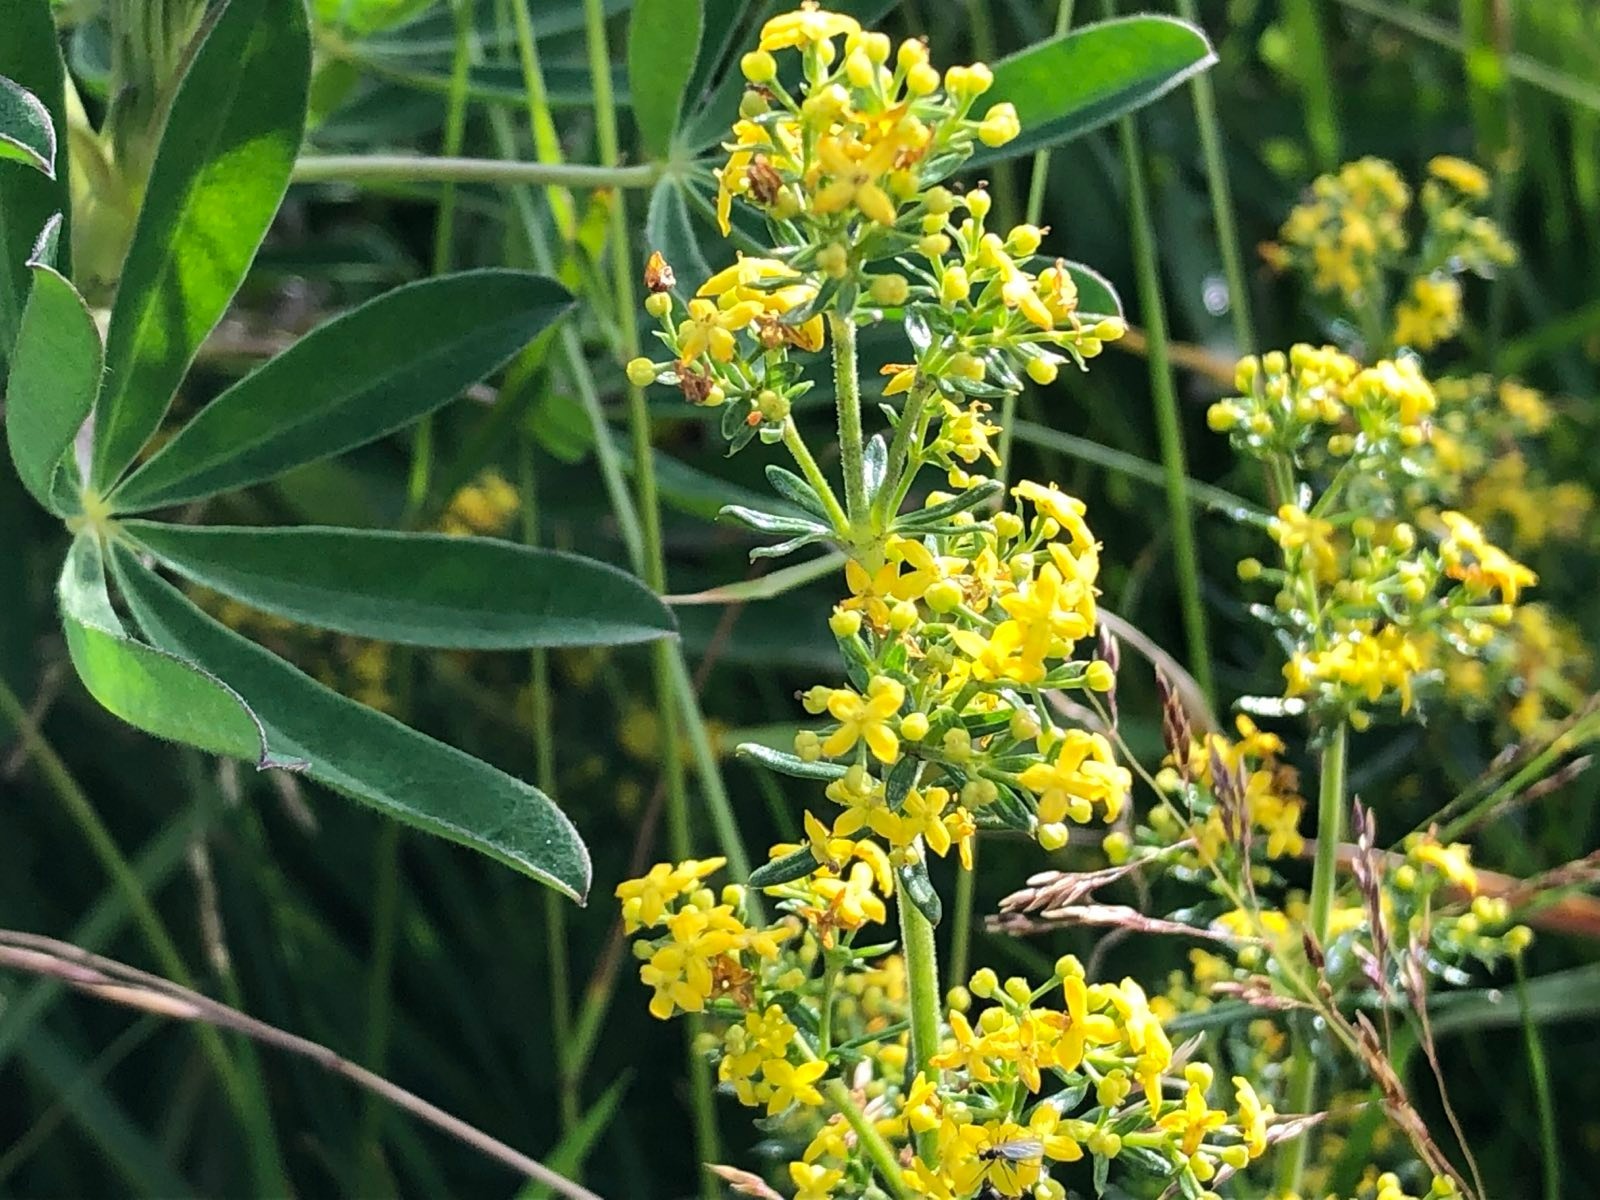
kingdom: Plantae
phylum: Tracheophyta
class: Magnoliopsida
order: Gentianales
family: Rubiaceae
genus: Galium
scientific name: Galium verum
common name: Lady's bedstraw
